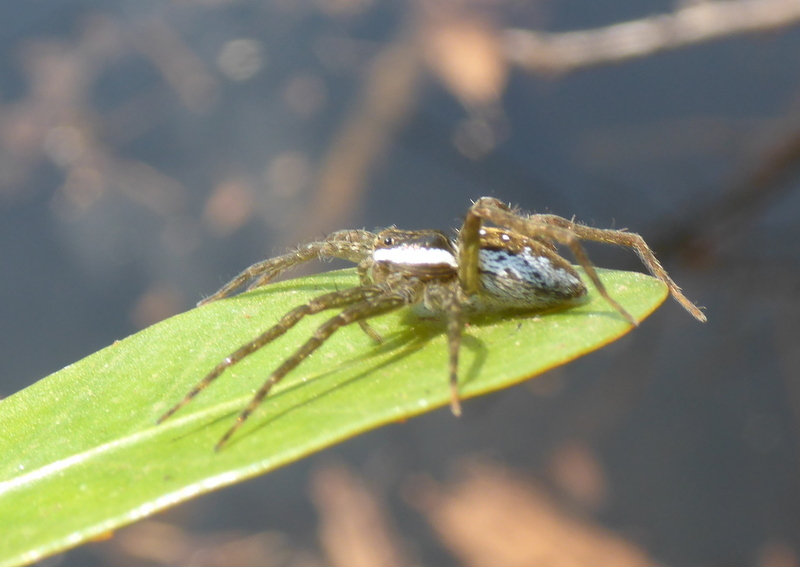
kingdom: Animalia
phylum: Arthropoda
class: Arachnida
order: Araneae
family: Pisauridae
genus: Dolomedes
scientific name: Dolomedes triton
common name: Six-spotted fishing spider
